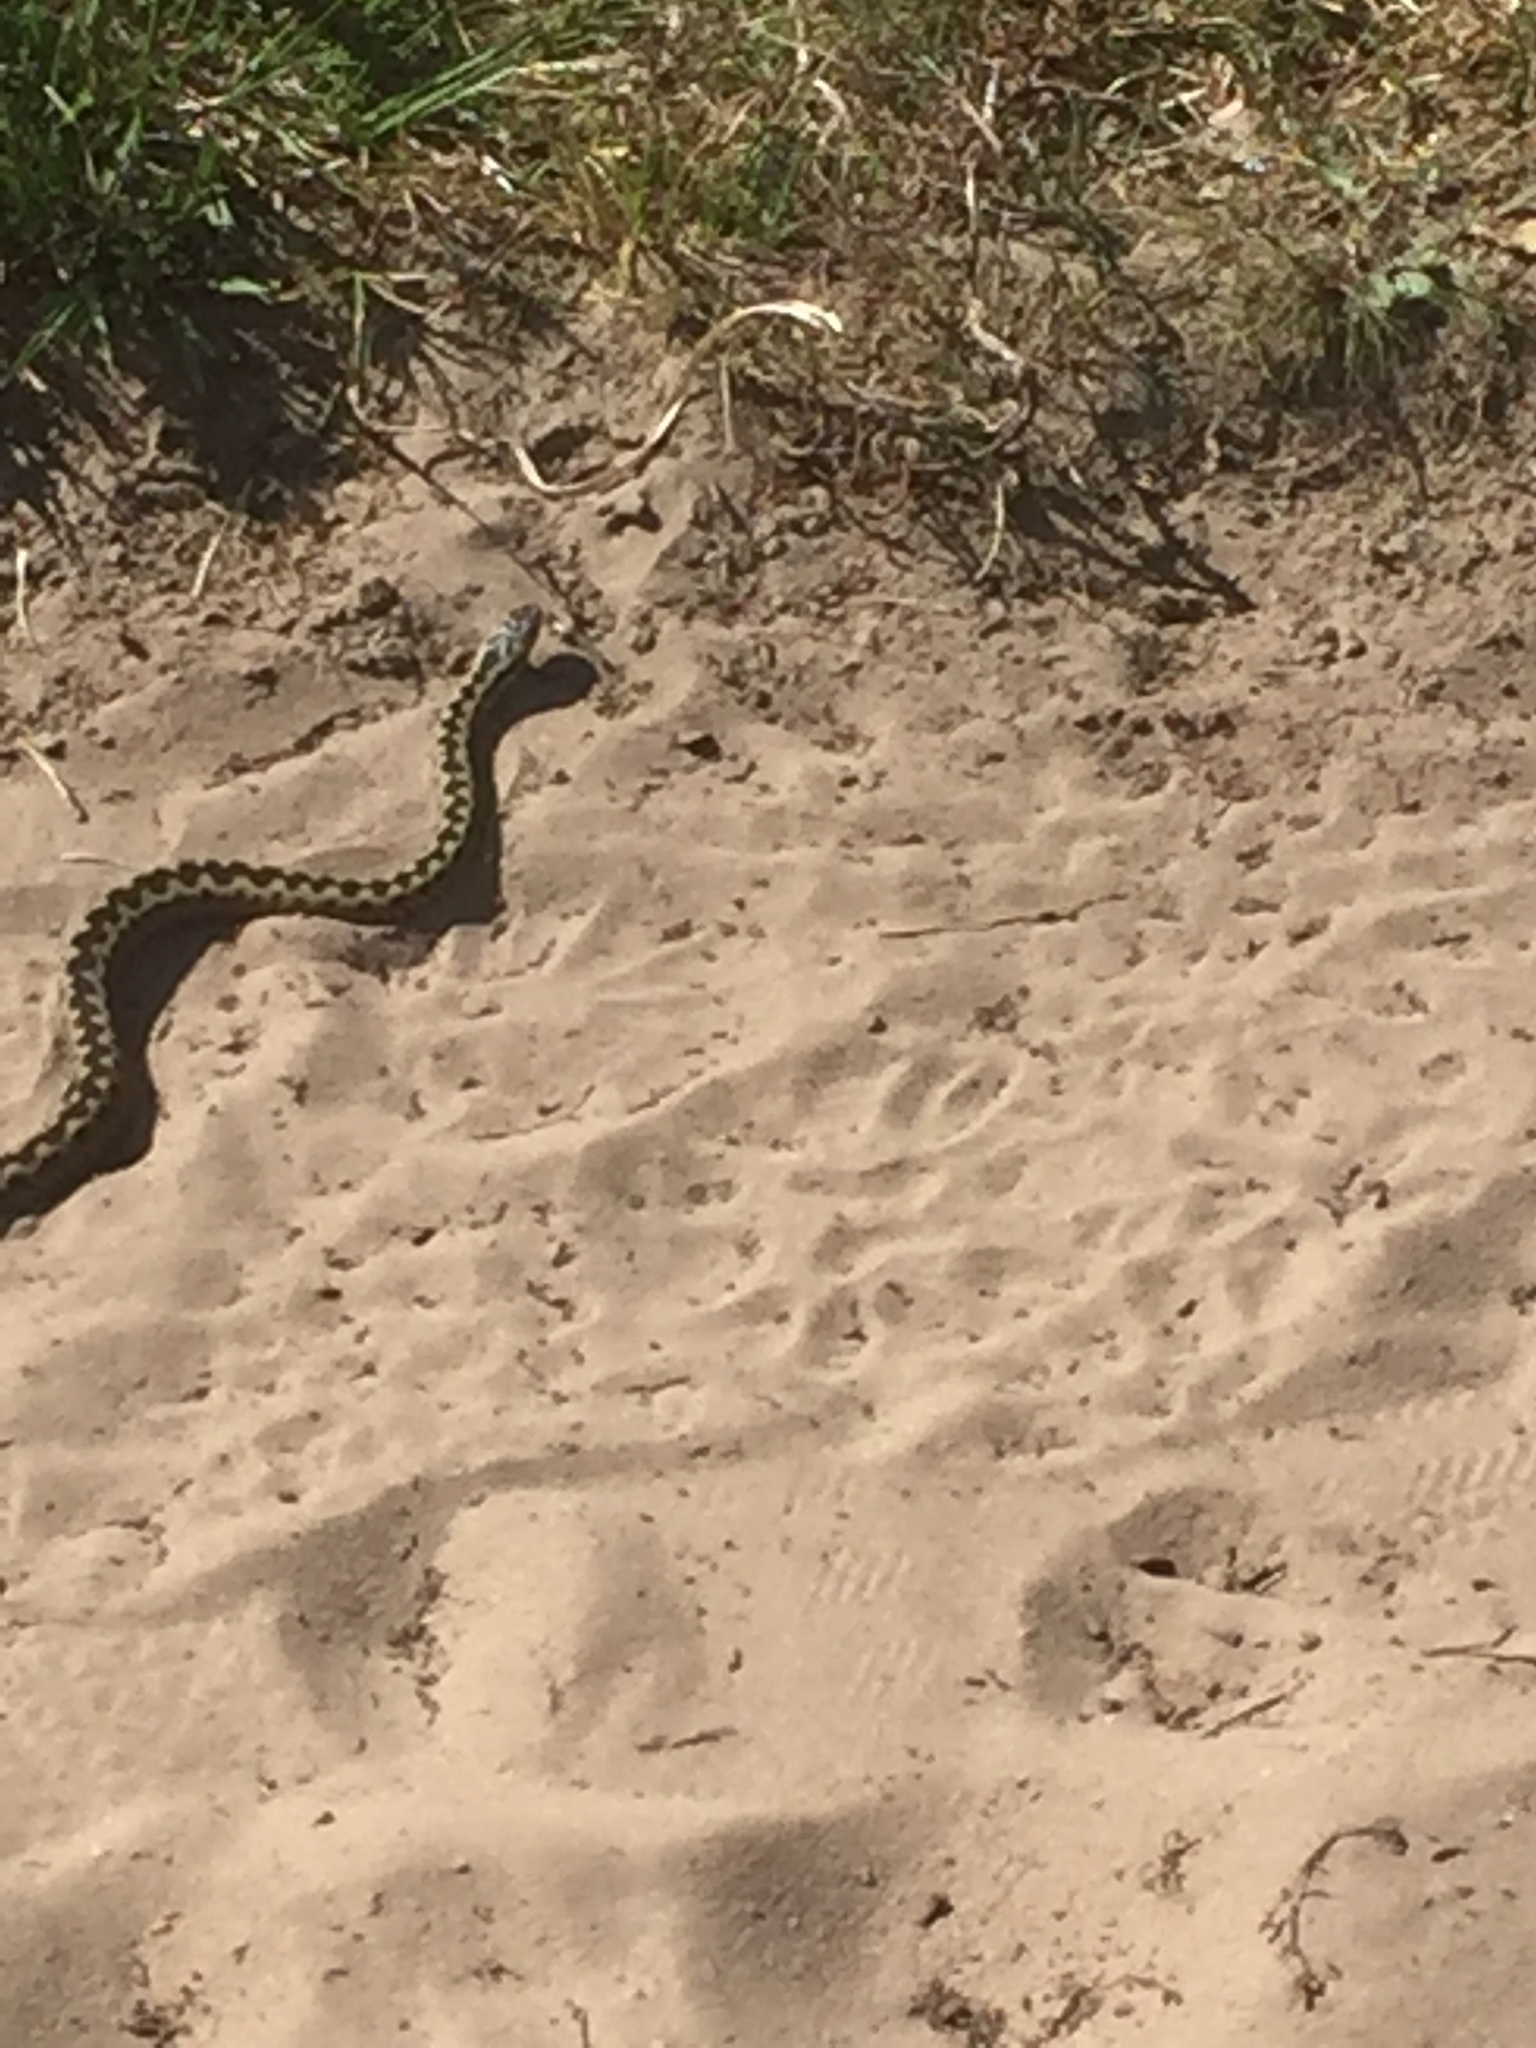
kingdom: Animalia
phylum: Chordata
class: Squamata
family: Viperidae
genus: Vipera
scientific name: Vipera berus
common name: Adder
